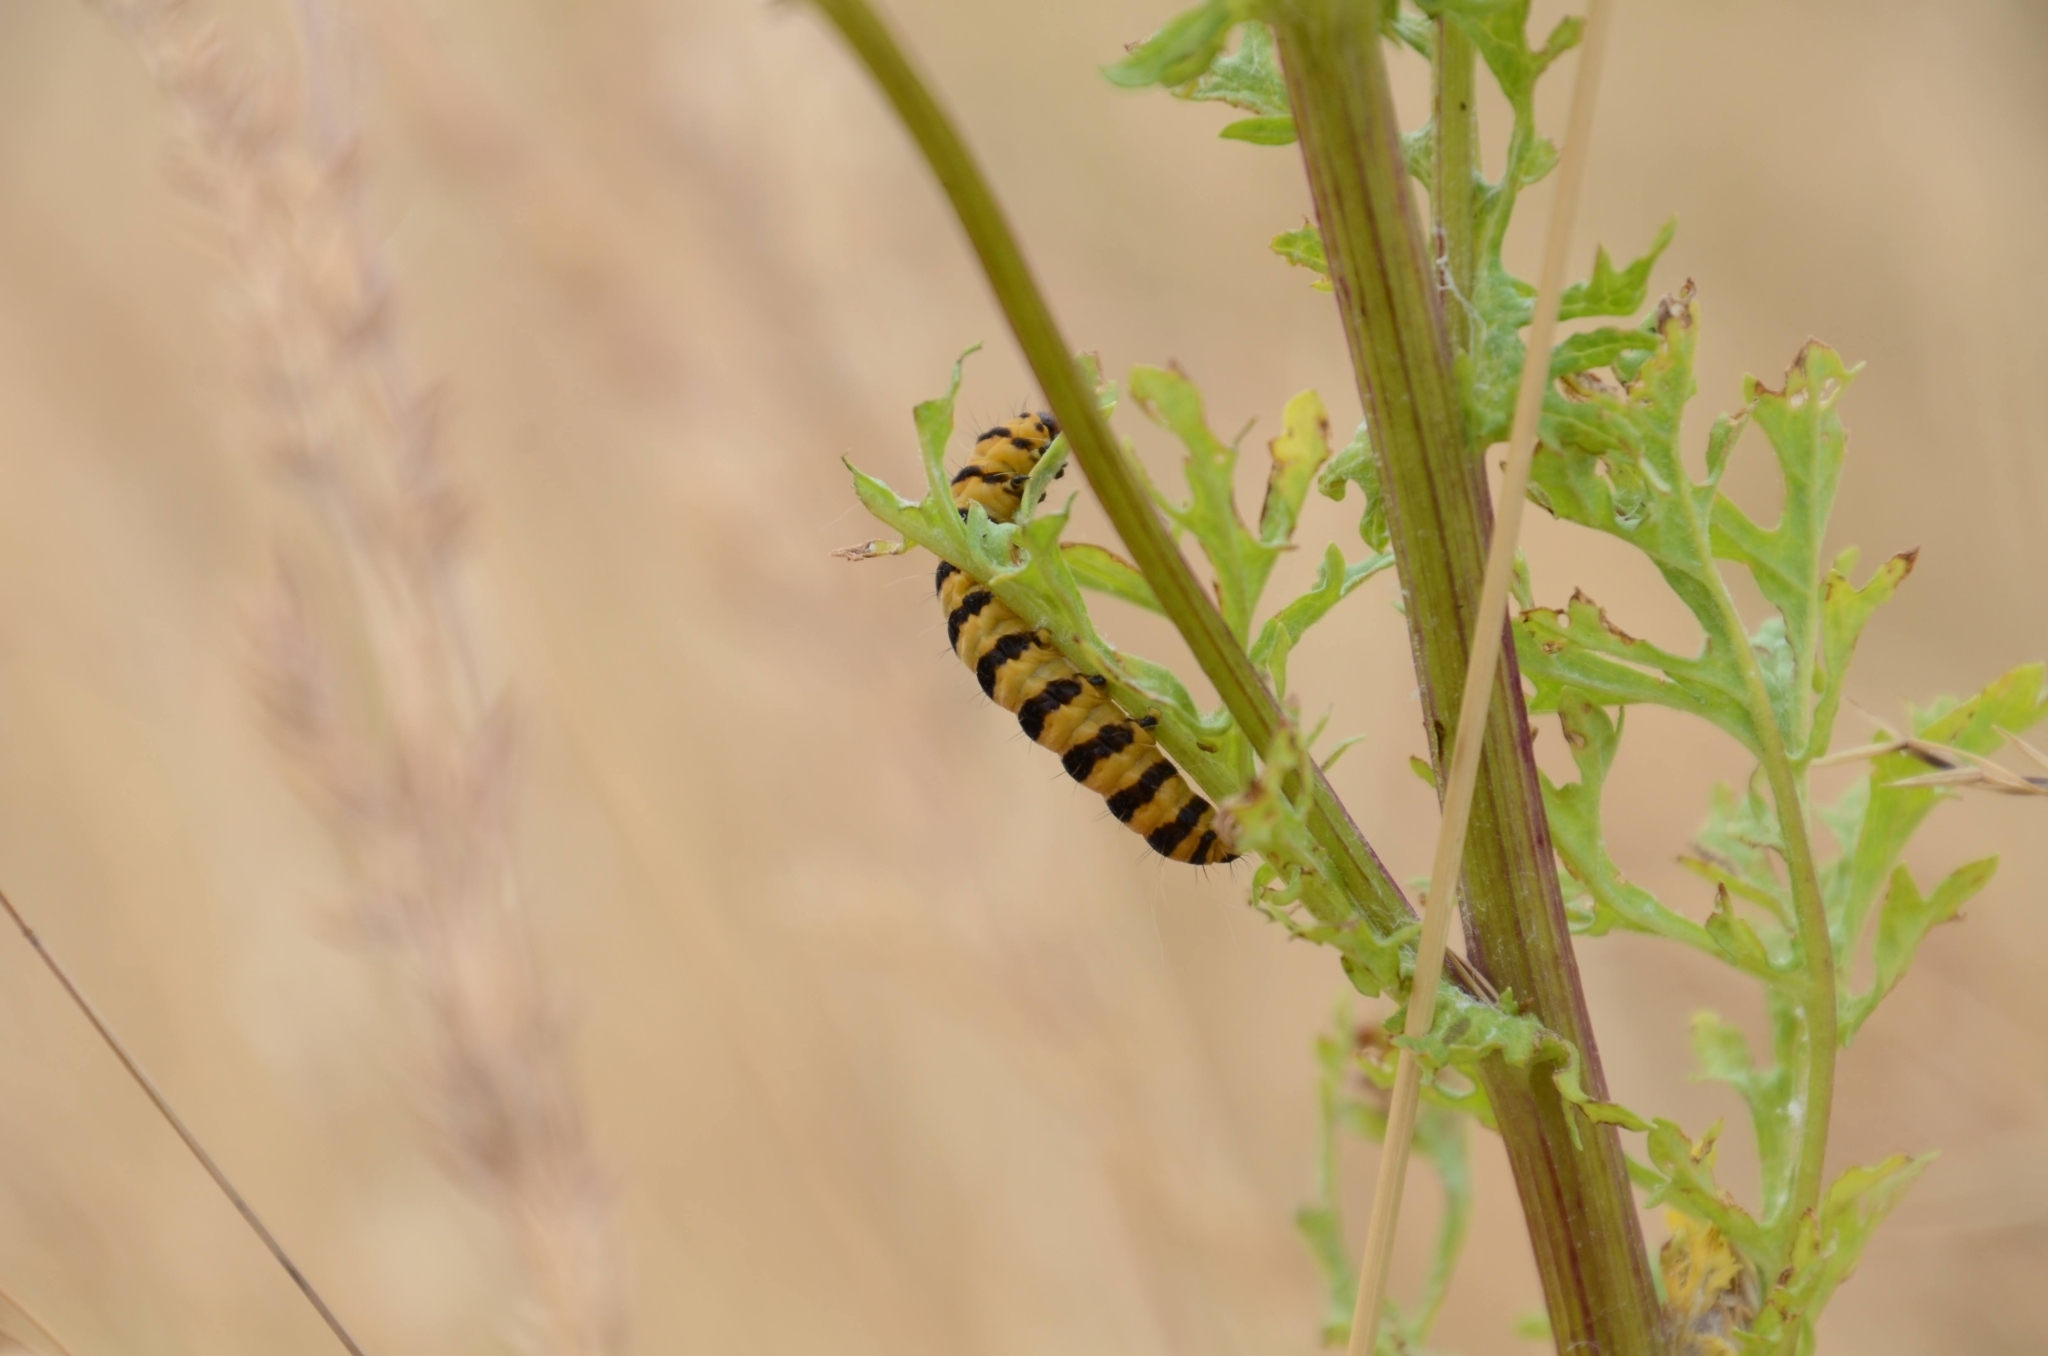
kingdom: Animalia
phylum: Arthropoda
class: Insecta
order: Lepidoptera
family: Erebidae
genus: Tyria
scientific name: Tyria jacobaeae
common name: Cinnabar
